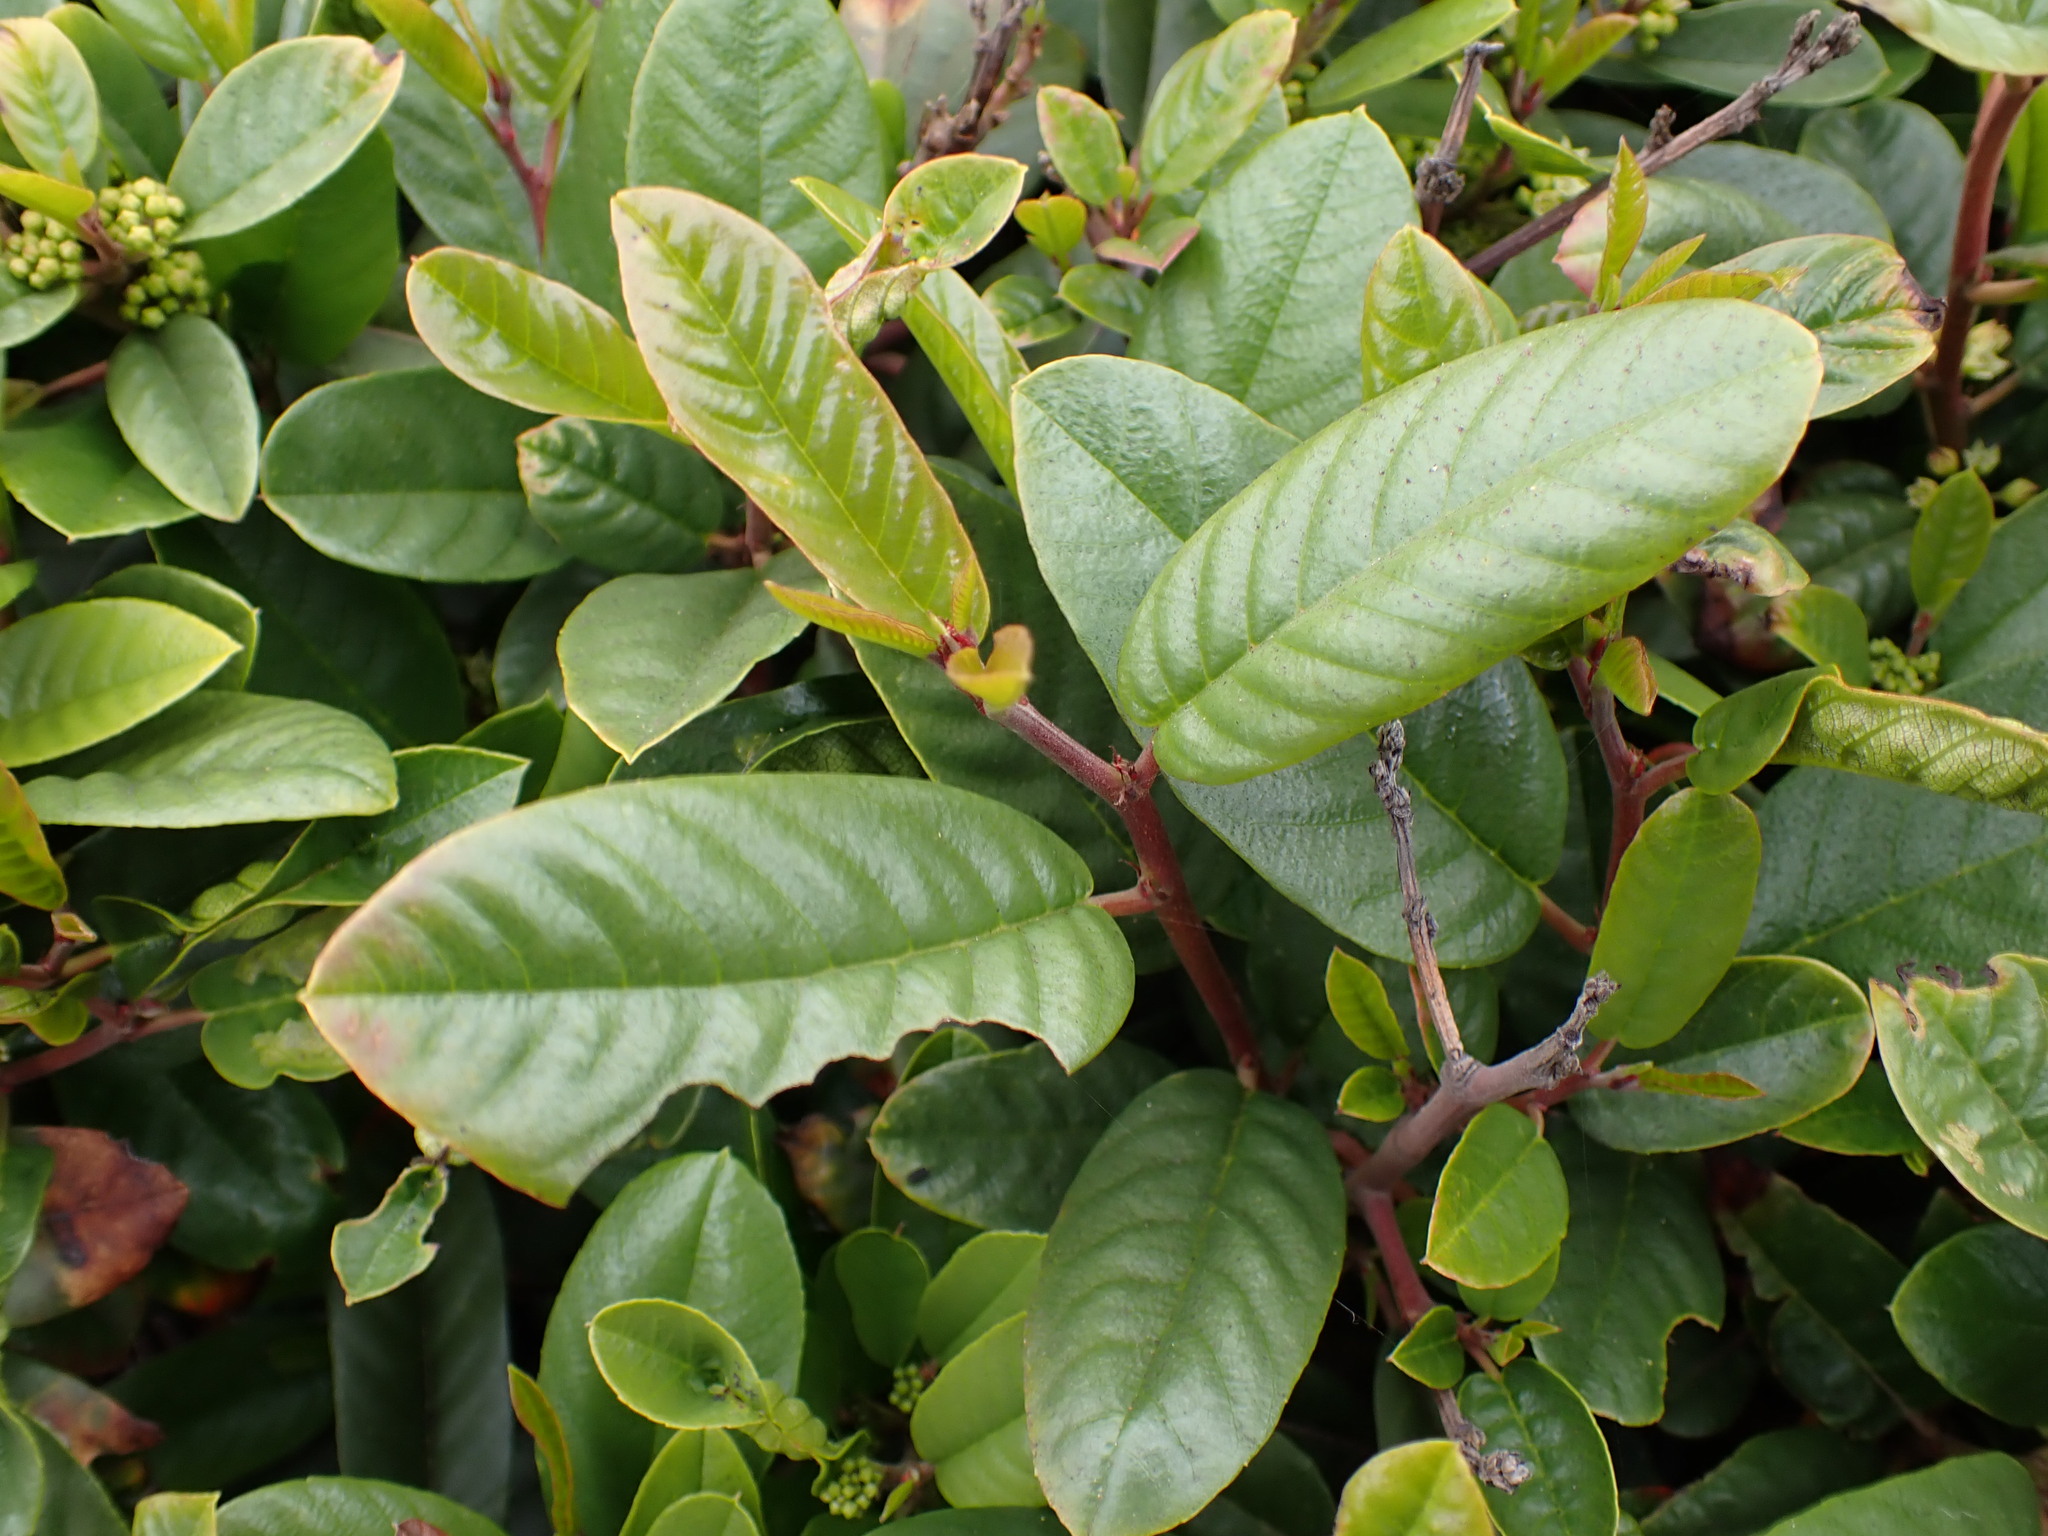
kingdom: Plantae
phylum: Tracheophyta
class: Magnoliopsida
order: Rosales
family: Rhamnaceae
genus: Frangula
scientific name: Frangula californica
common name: California buckthorn
